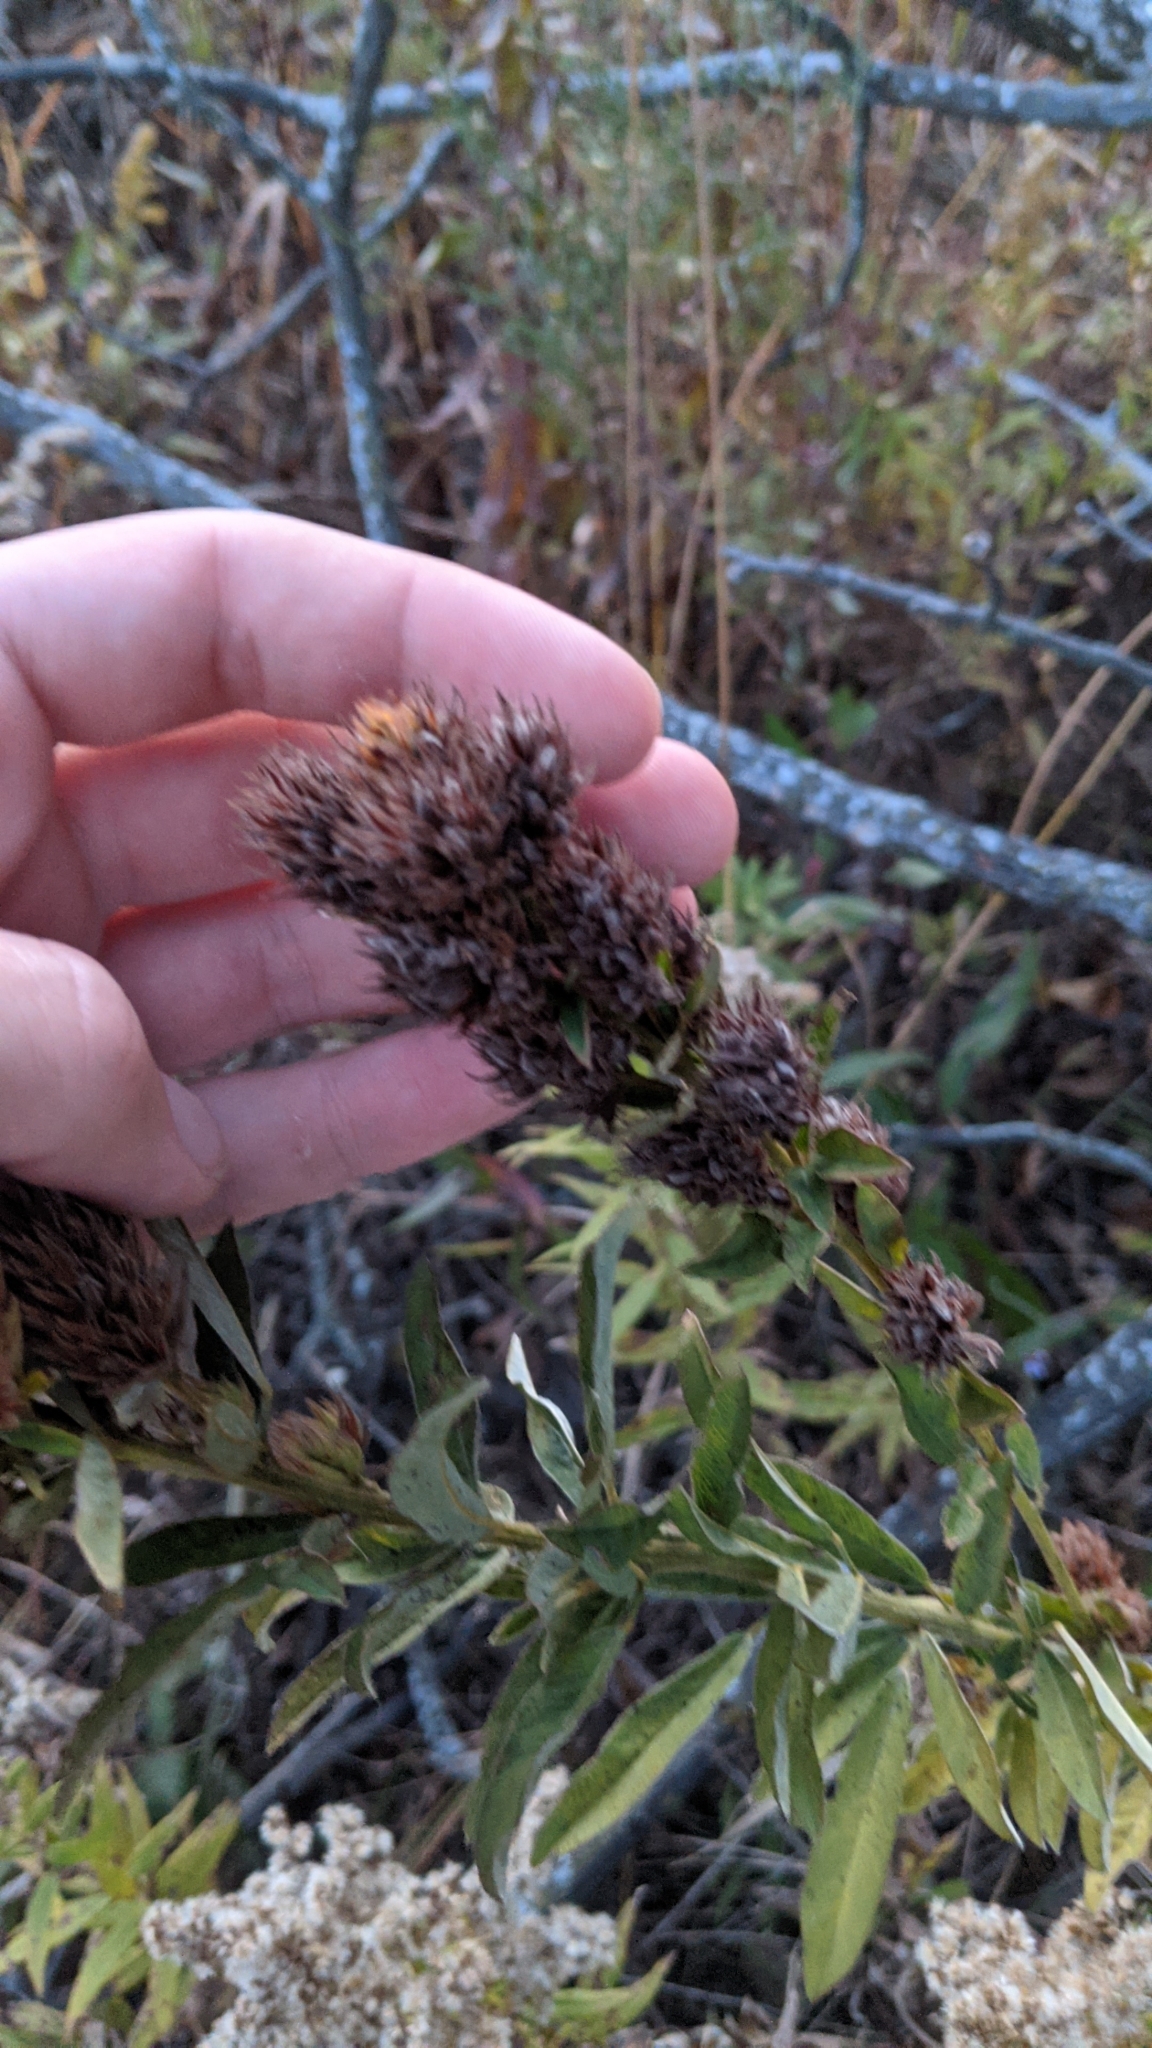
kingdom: Plantae
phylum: Tracheophyta
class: Magnoliopsida
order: Fabales
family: Fabaceae
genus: Lespedeza
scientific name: Lespedeza capitata
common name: Dusty clover
